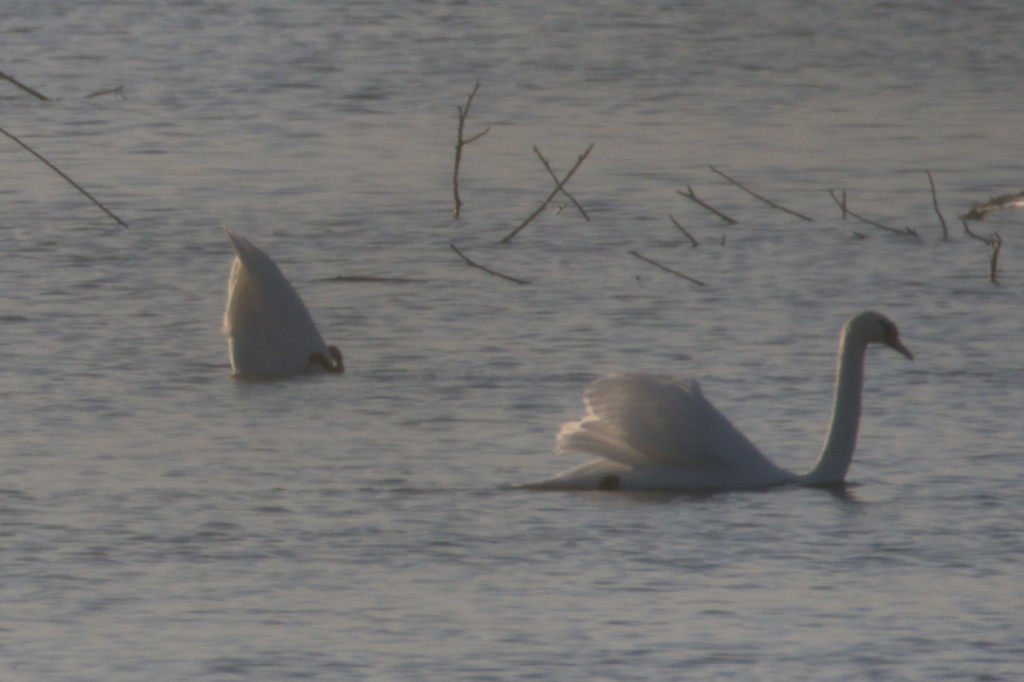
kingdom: Animalia
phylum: Chordata
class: Aves
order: Anseriformes
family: Anatidae
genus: Cygnus
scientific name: Cygnus olor
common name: Mute swan
